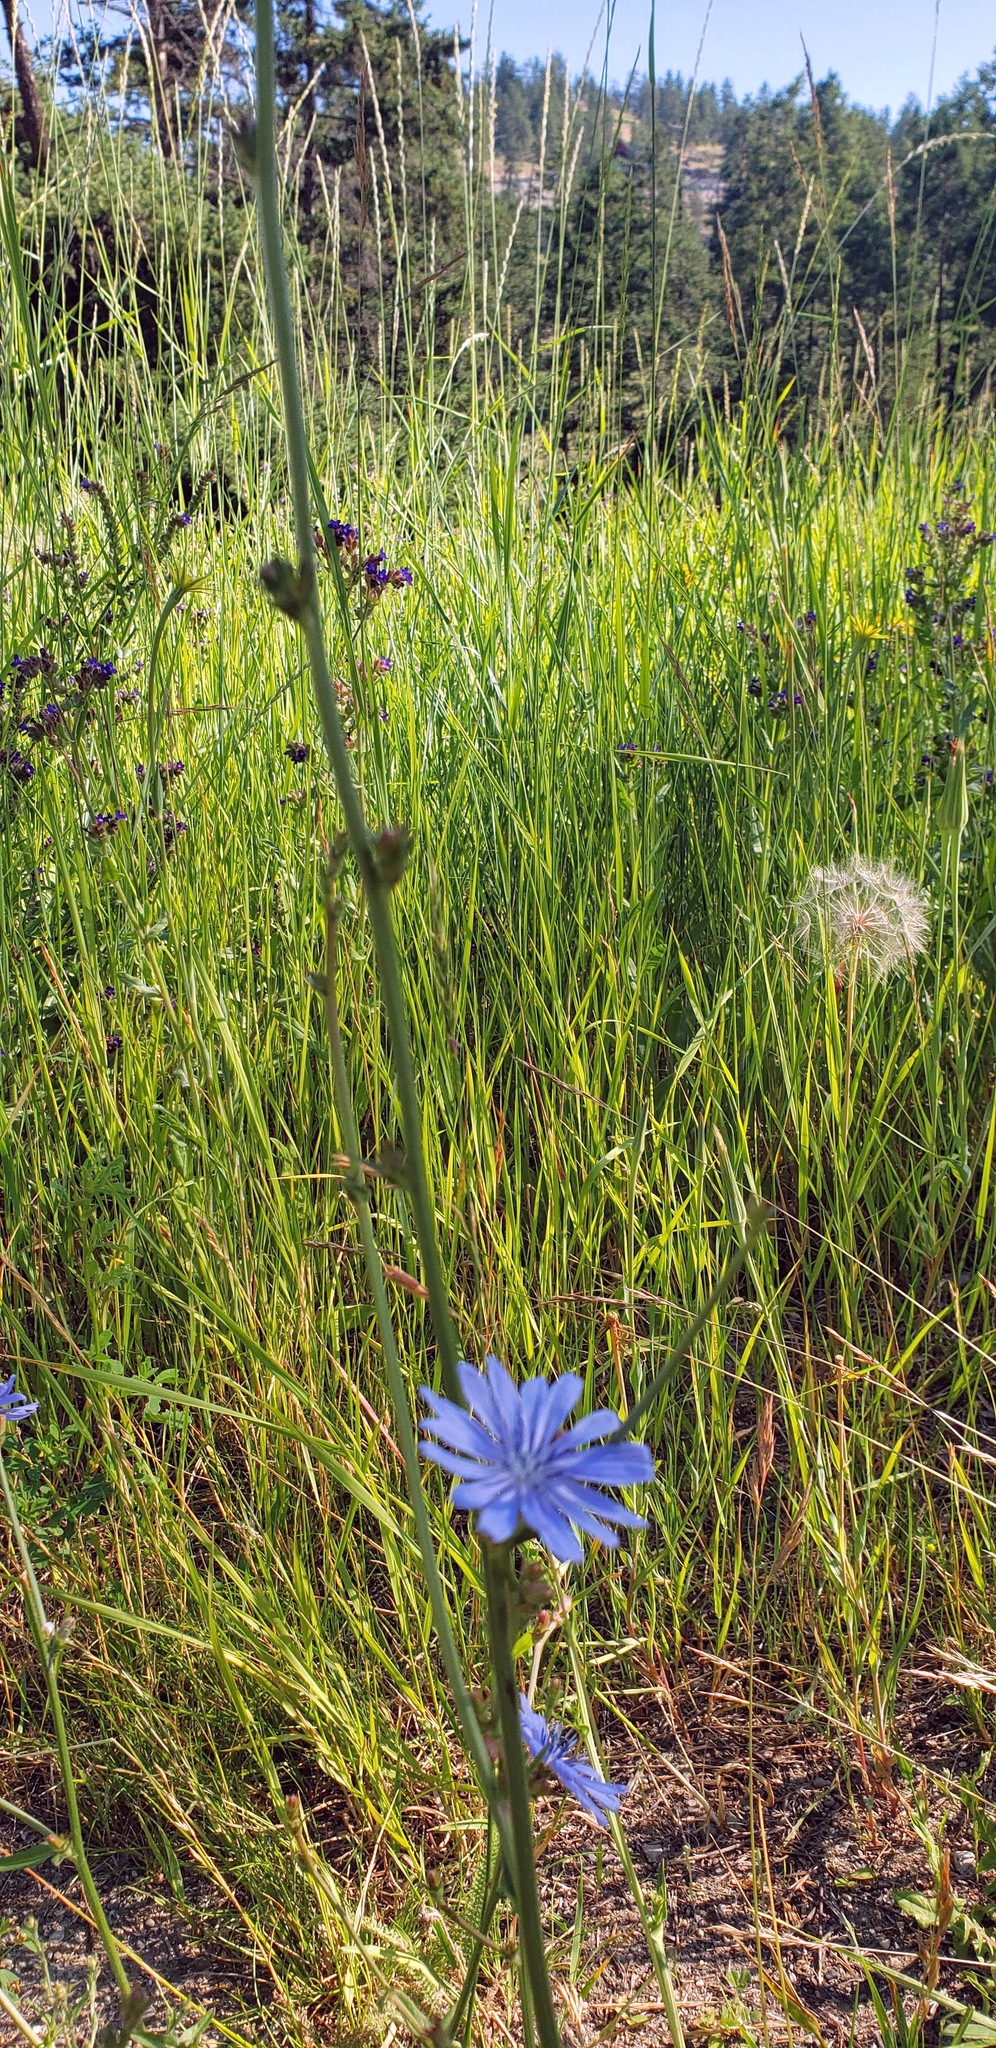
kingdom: Plantae
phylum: Tracheophyta
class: Magnoliopsida
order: Asterales
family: Asteraceae
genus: Cichorium
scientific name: Cichorium intybus
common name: Chicory
